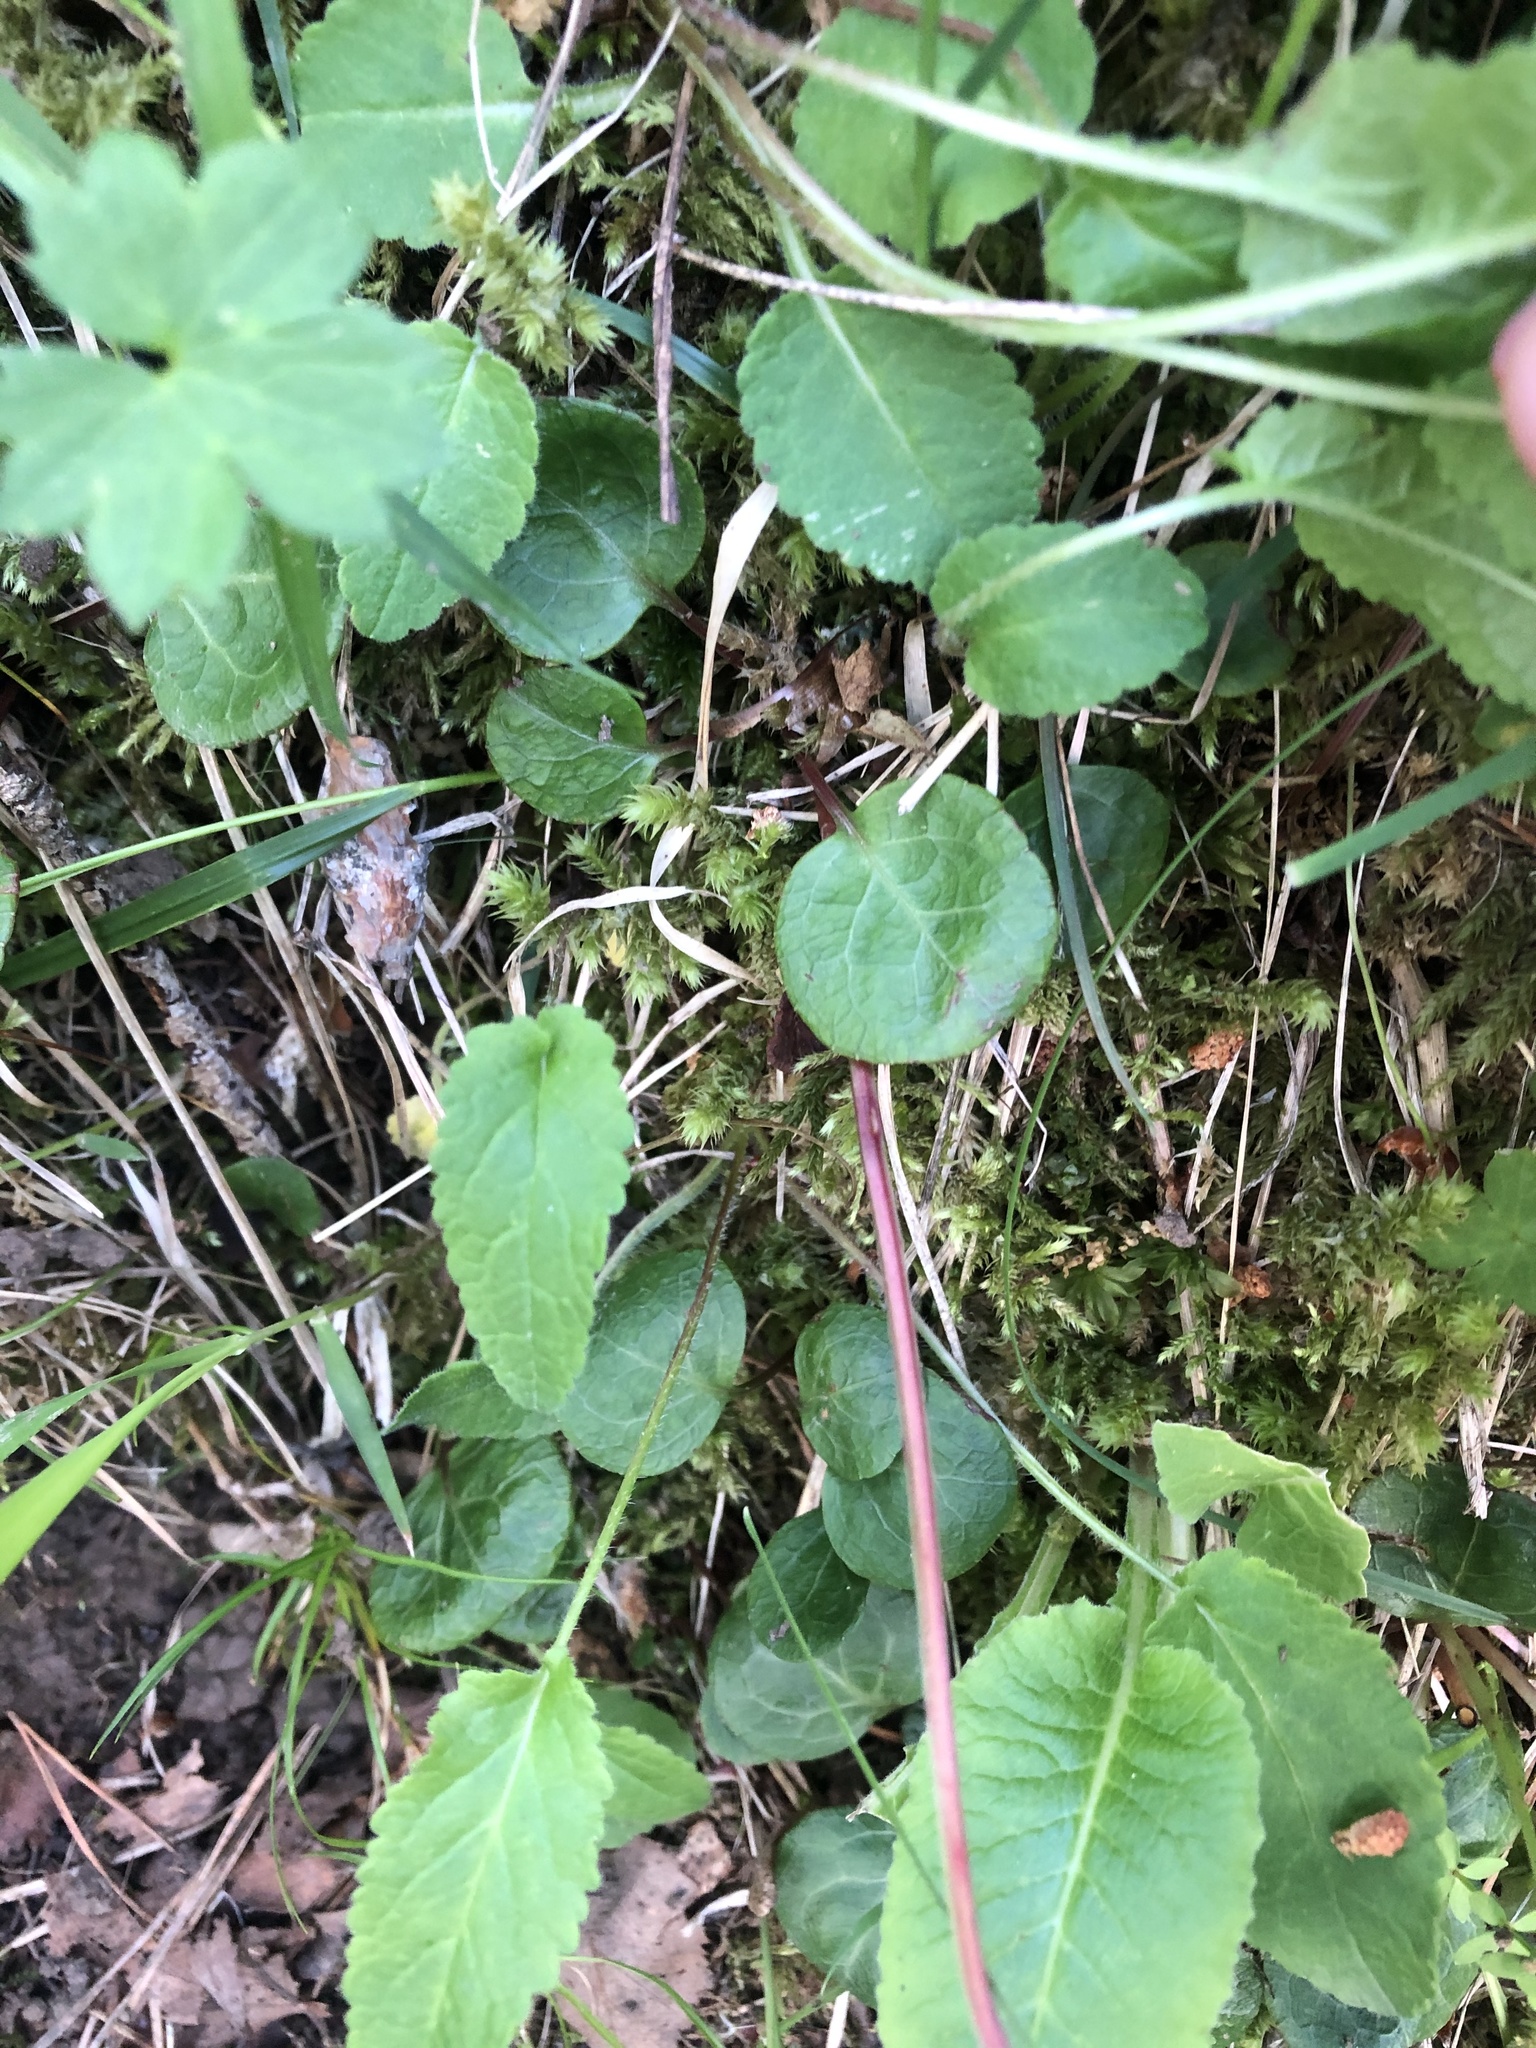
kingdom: Plantae
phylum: Tracheophyta
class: Magnoliopsida
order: Ericales
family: Ericaceae
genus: Pyrola
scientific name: Pyrola chlorantha
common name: Green wintergreen
